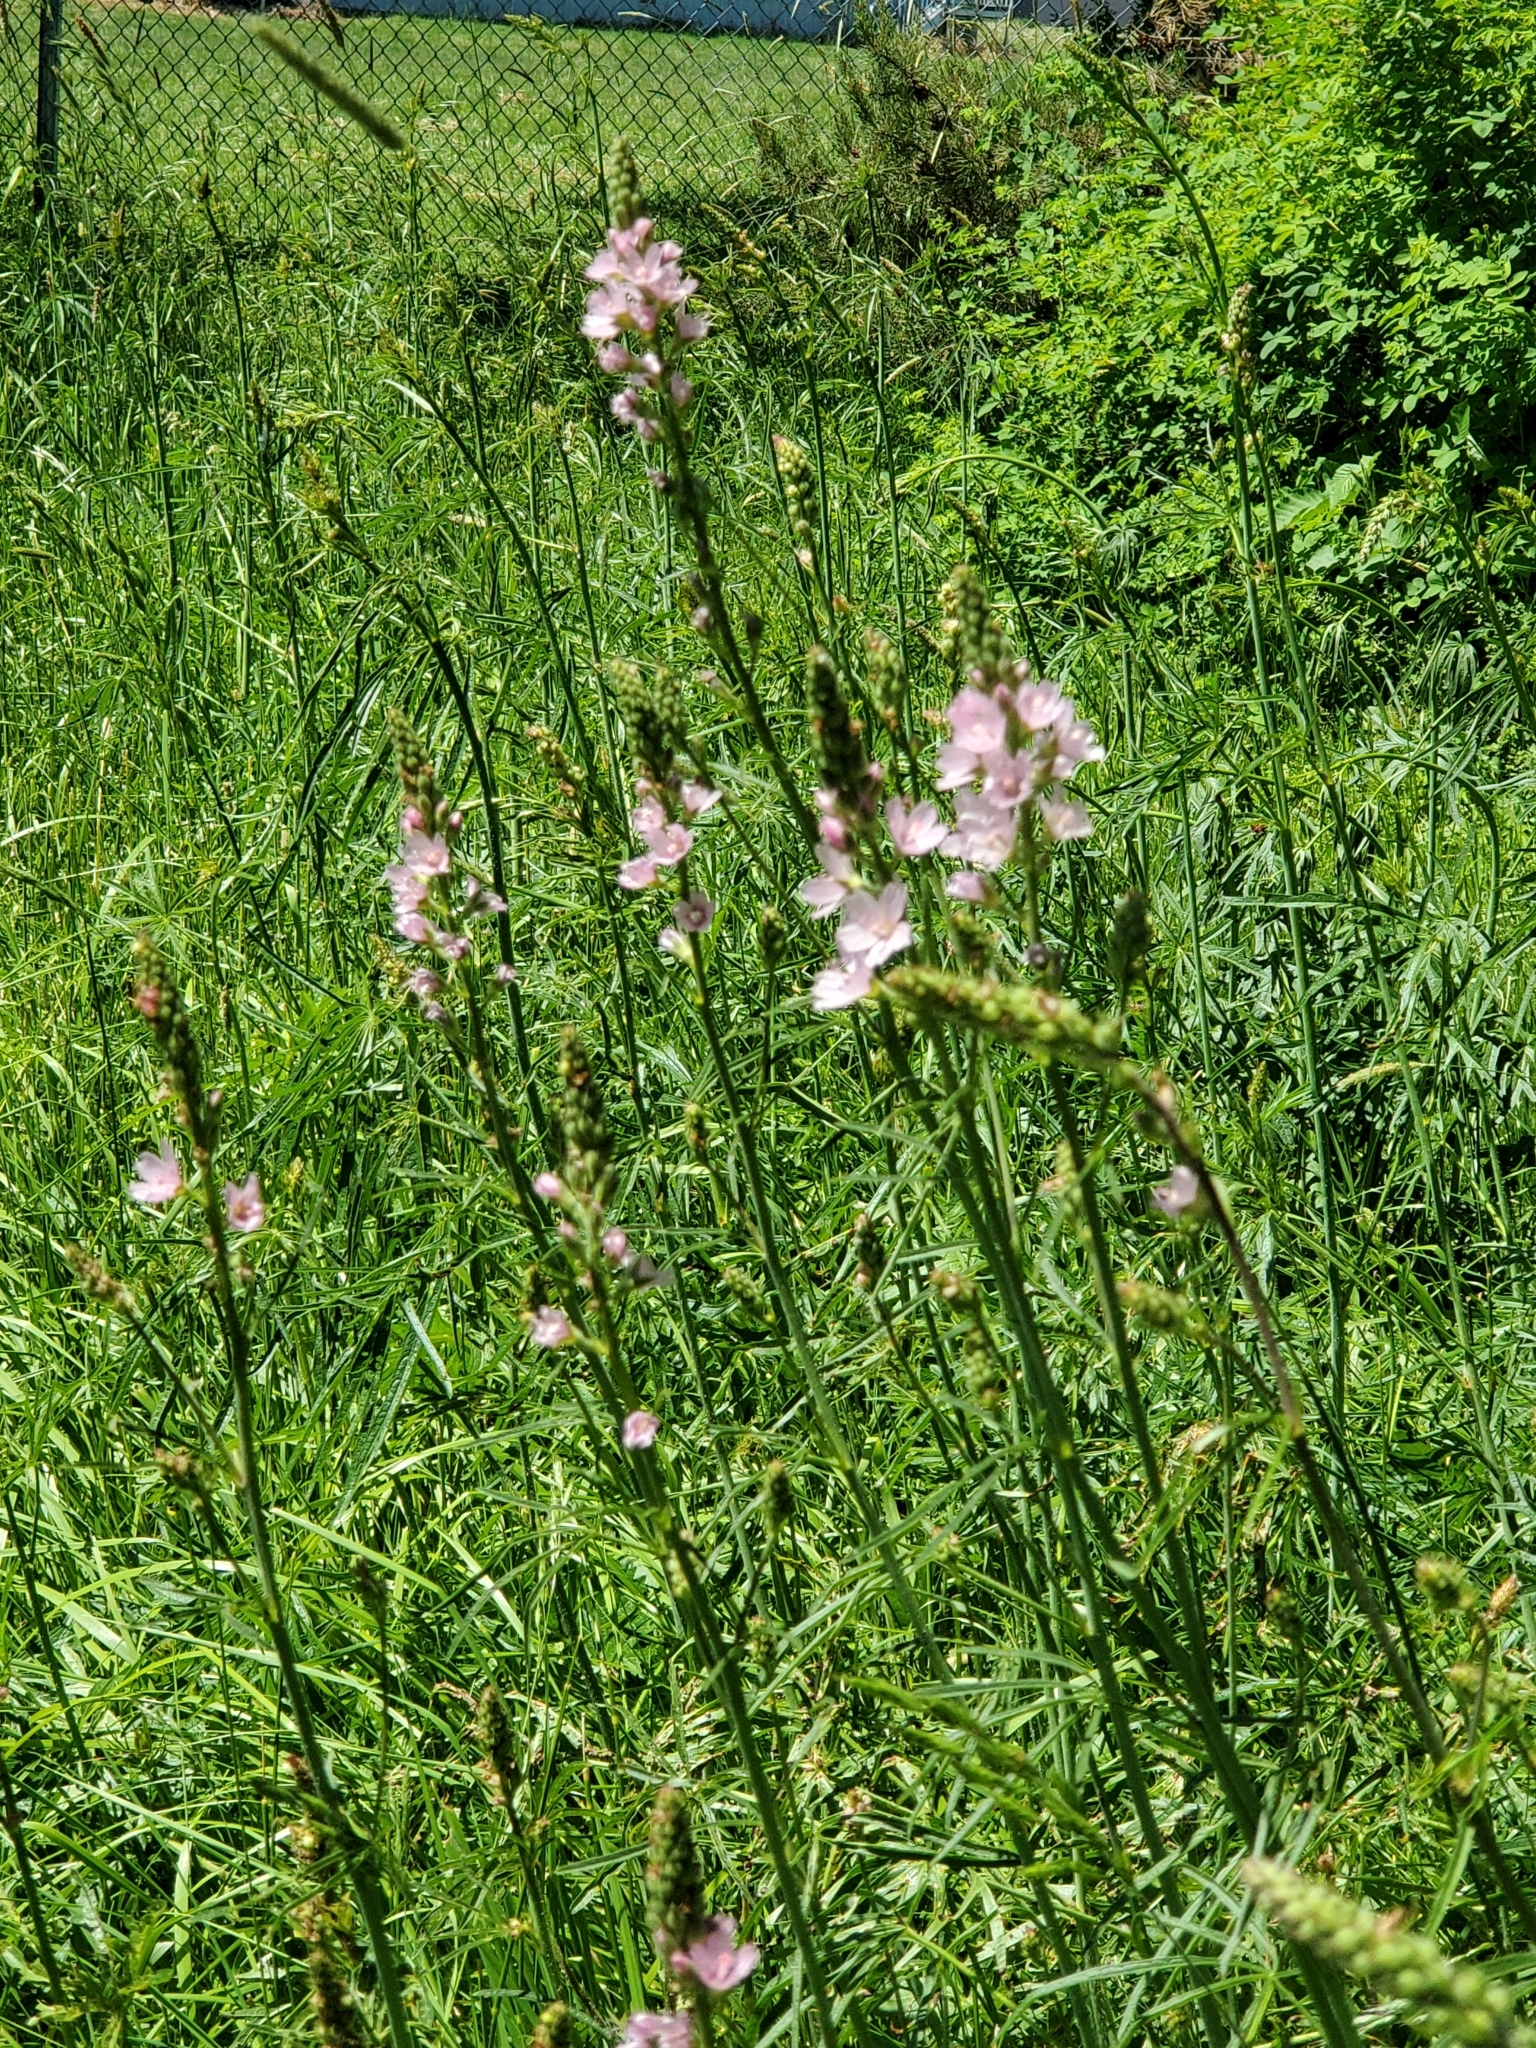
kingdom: Plantae
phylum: Tracheophyta
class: Magnoliopsida
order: Malvales
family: Malvaceae
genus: Sidalcea
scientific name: Sidalcea campestris
